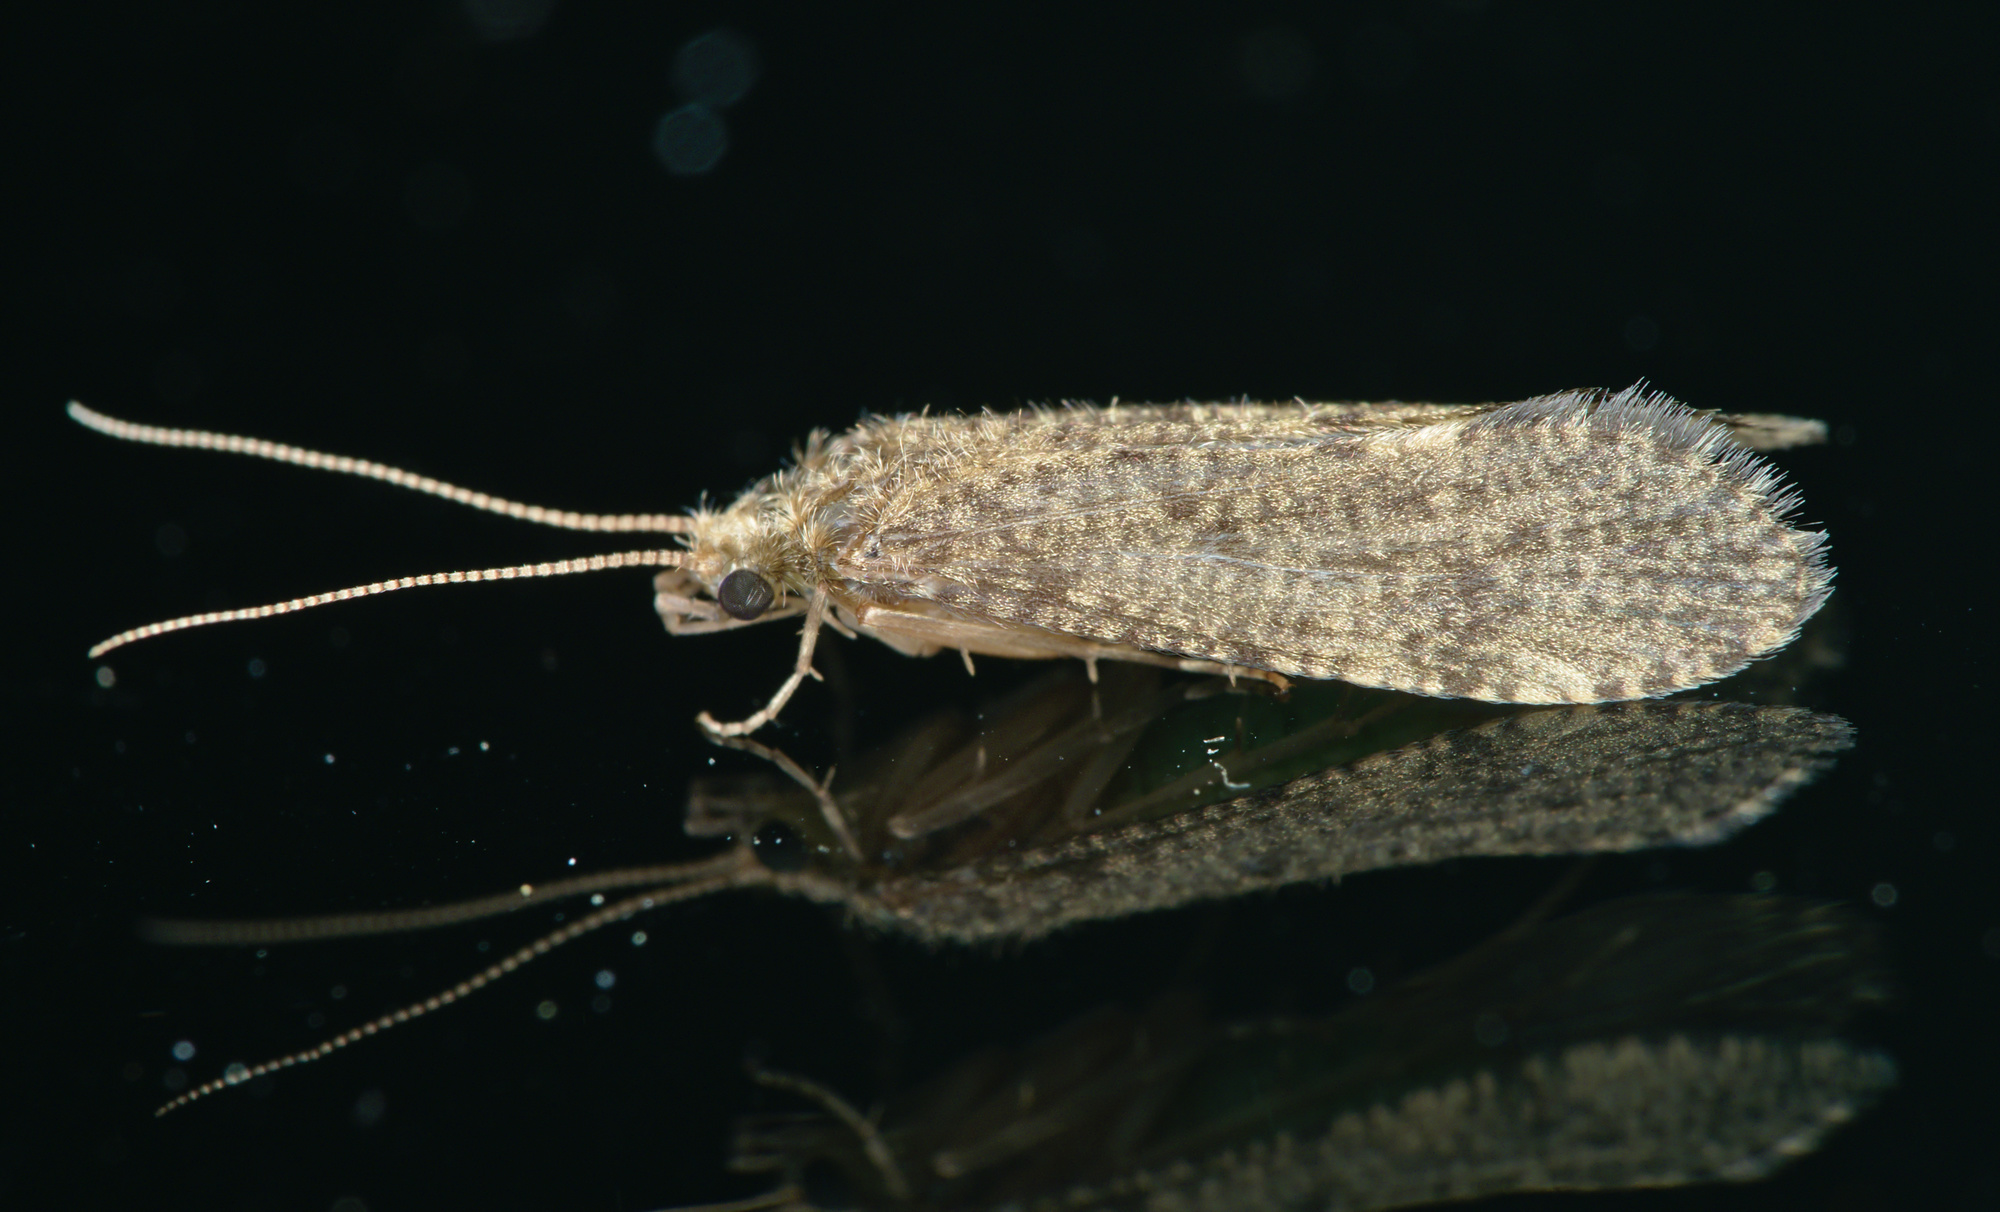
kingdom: Animalia
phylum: Arthropoda
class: Insecta
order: Trichoptera
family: Ecnomidae
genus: Ecnomus
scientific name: Ecnomus tenellus
